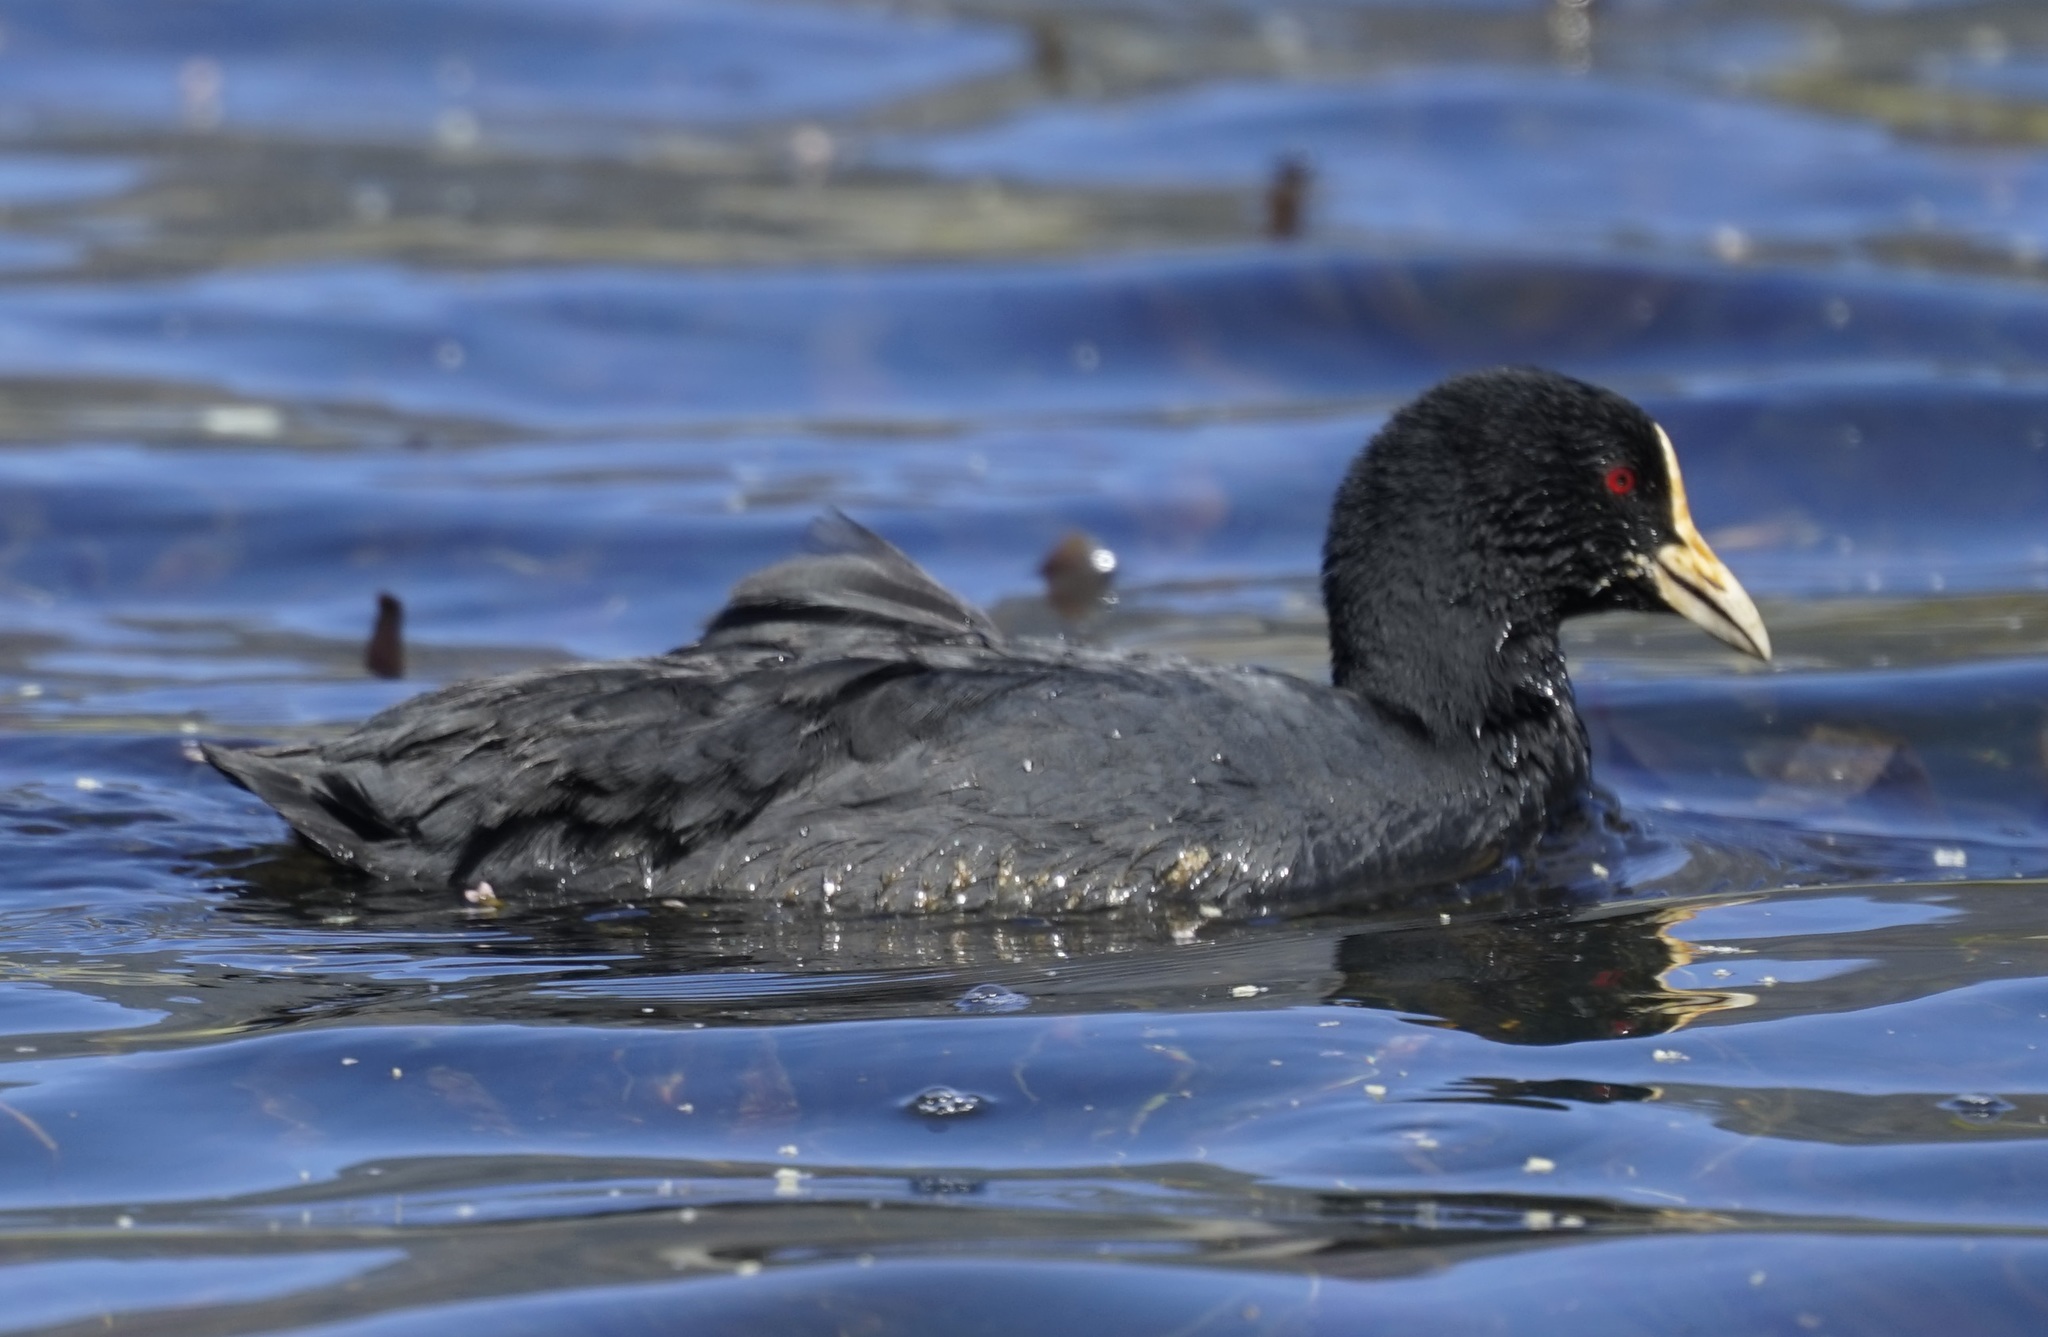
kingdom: Animalia
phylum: Chordata
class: Aves
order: Gruiformes
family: Rallidae
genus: Fulica
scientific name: Fulica atra
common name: Eurasian coot
